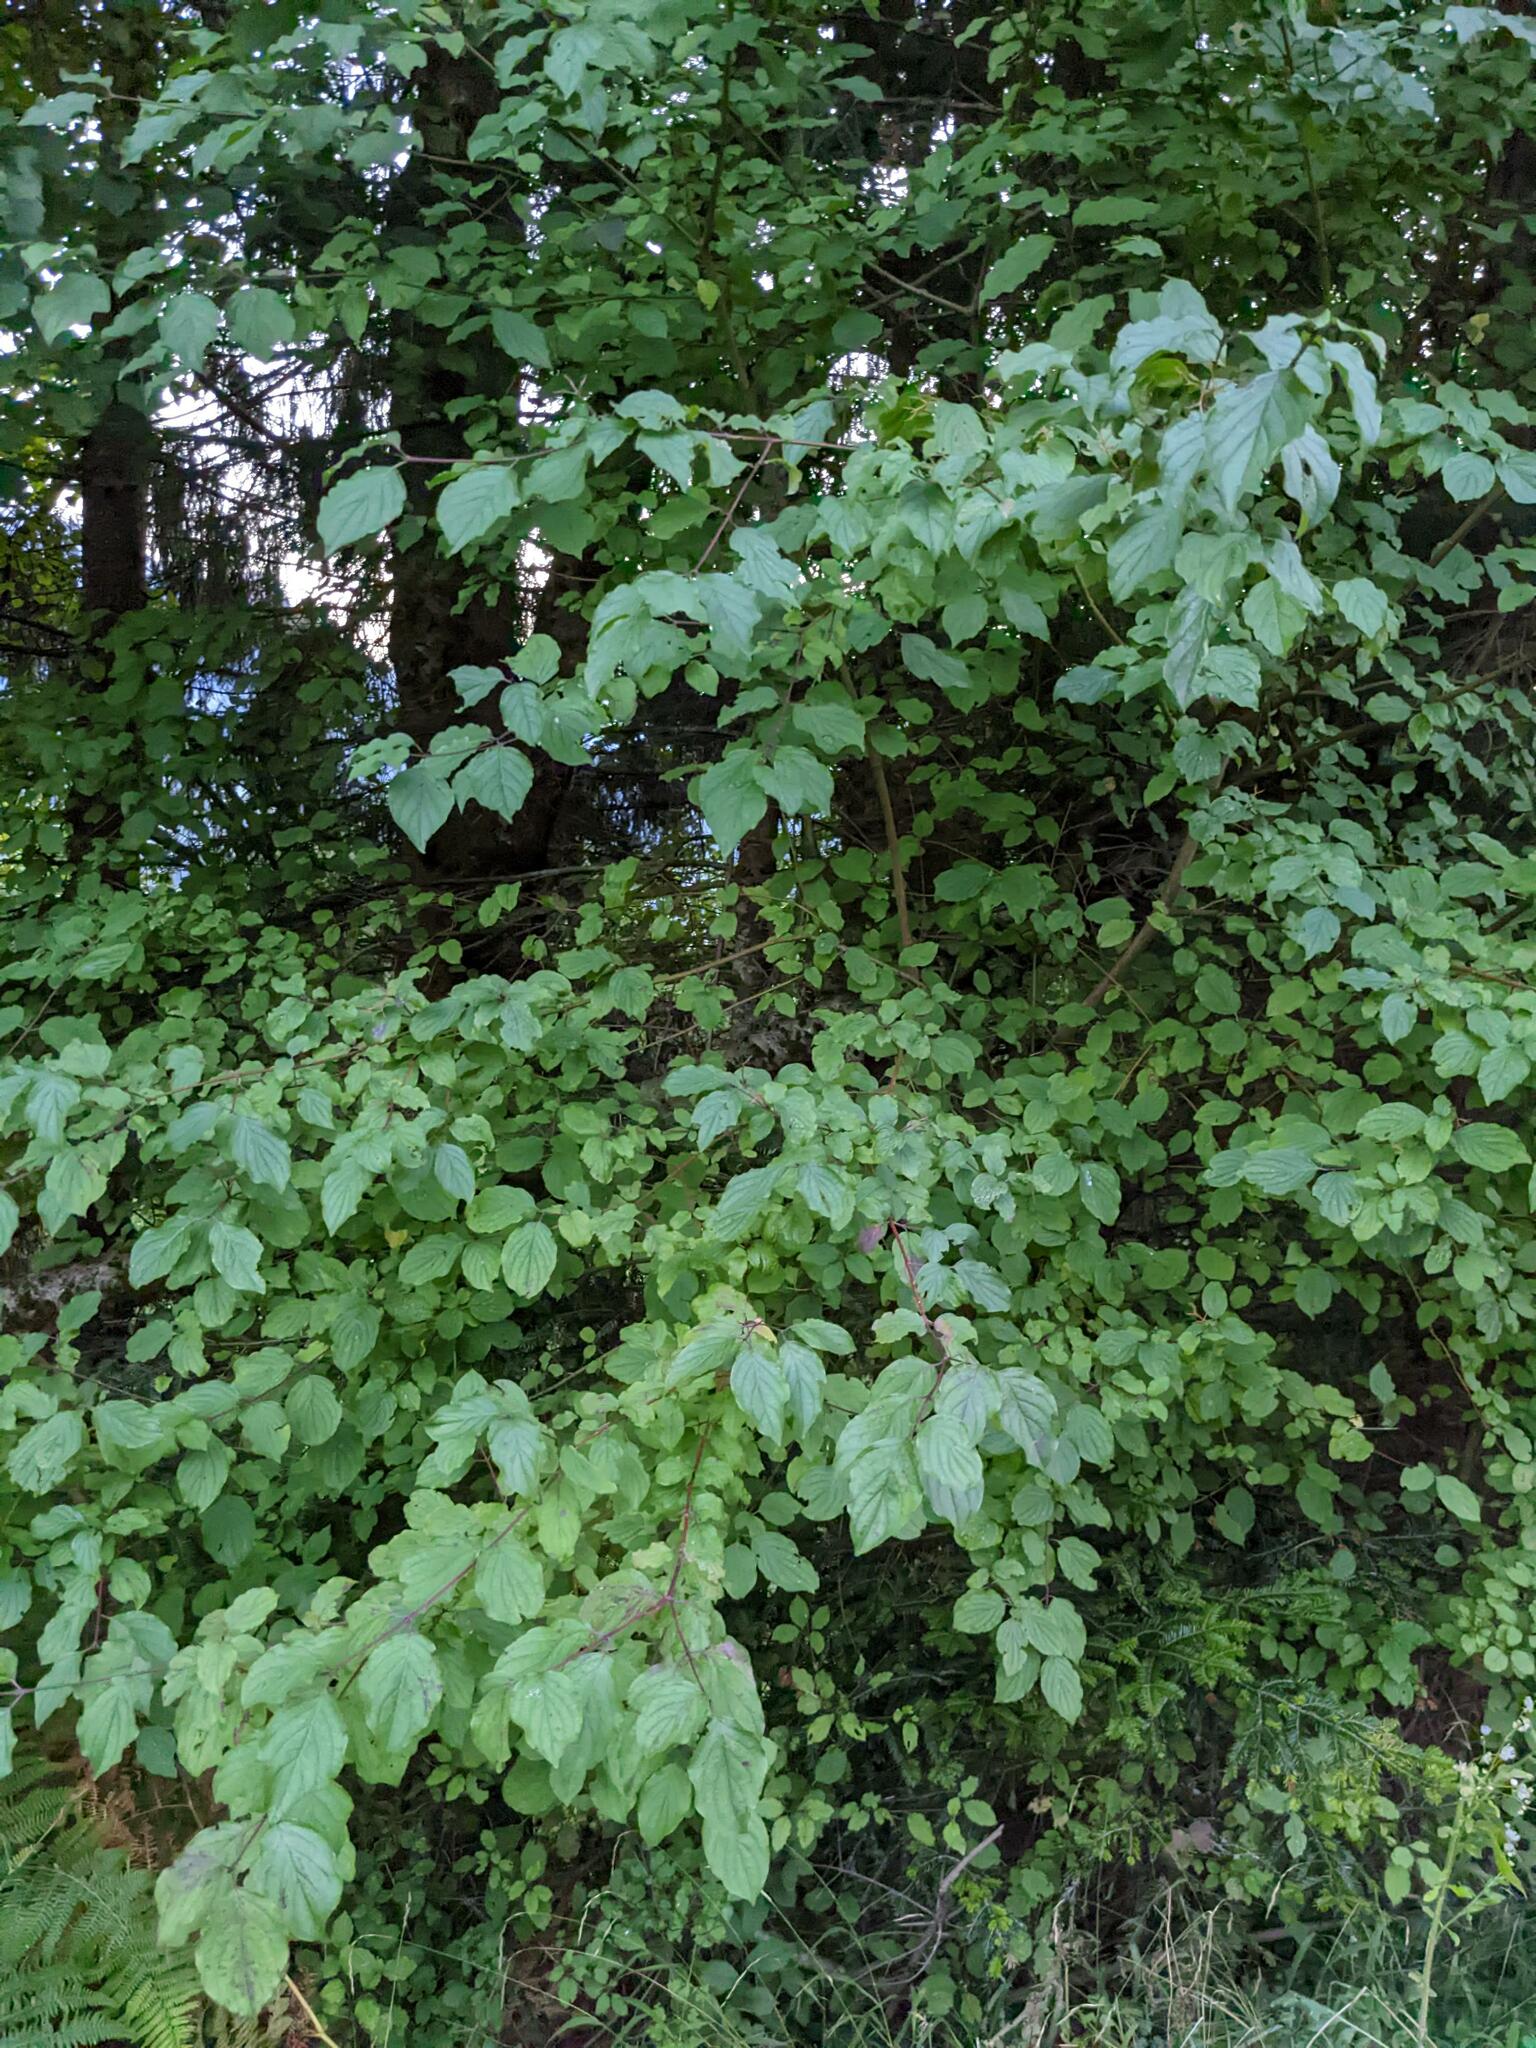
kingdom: Plantae
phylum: Tracheophyta
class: Magnoliopsida
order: Cornales
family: Cornaceae
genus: Cornus
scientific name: Cornus sanguinea
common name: Dogwood
